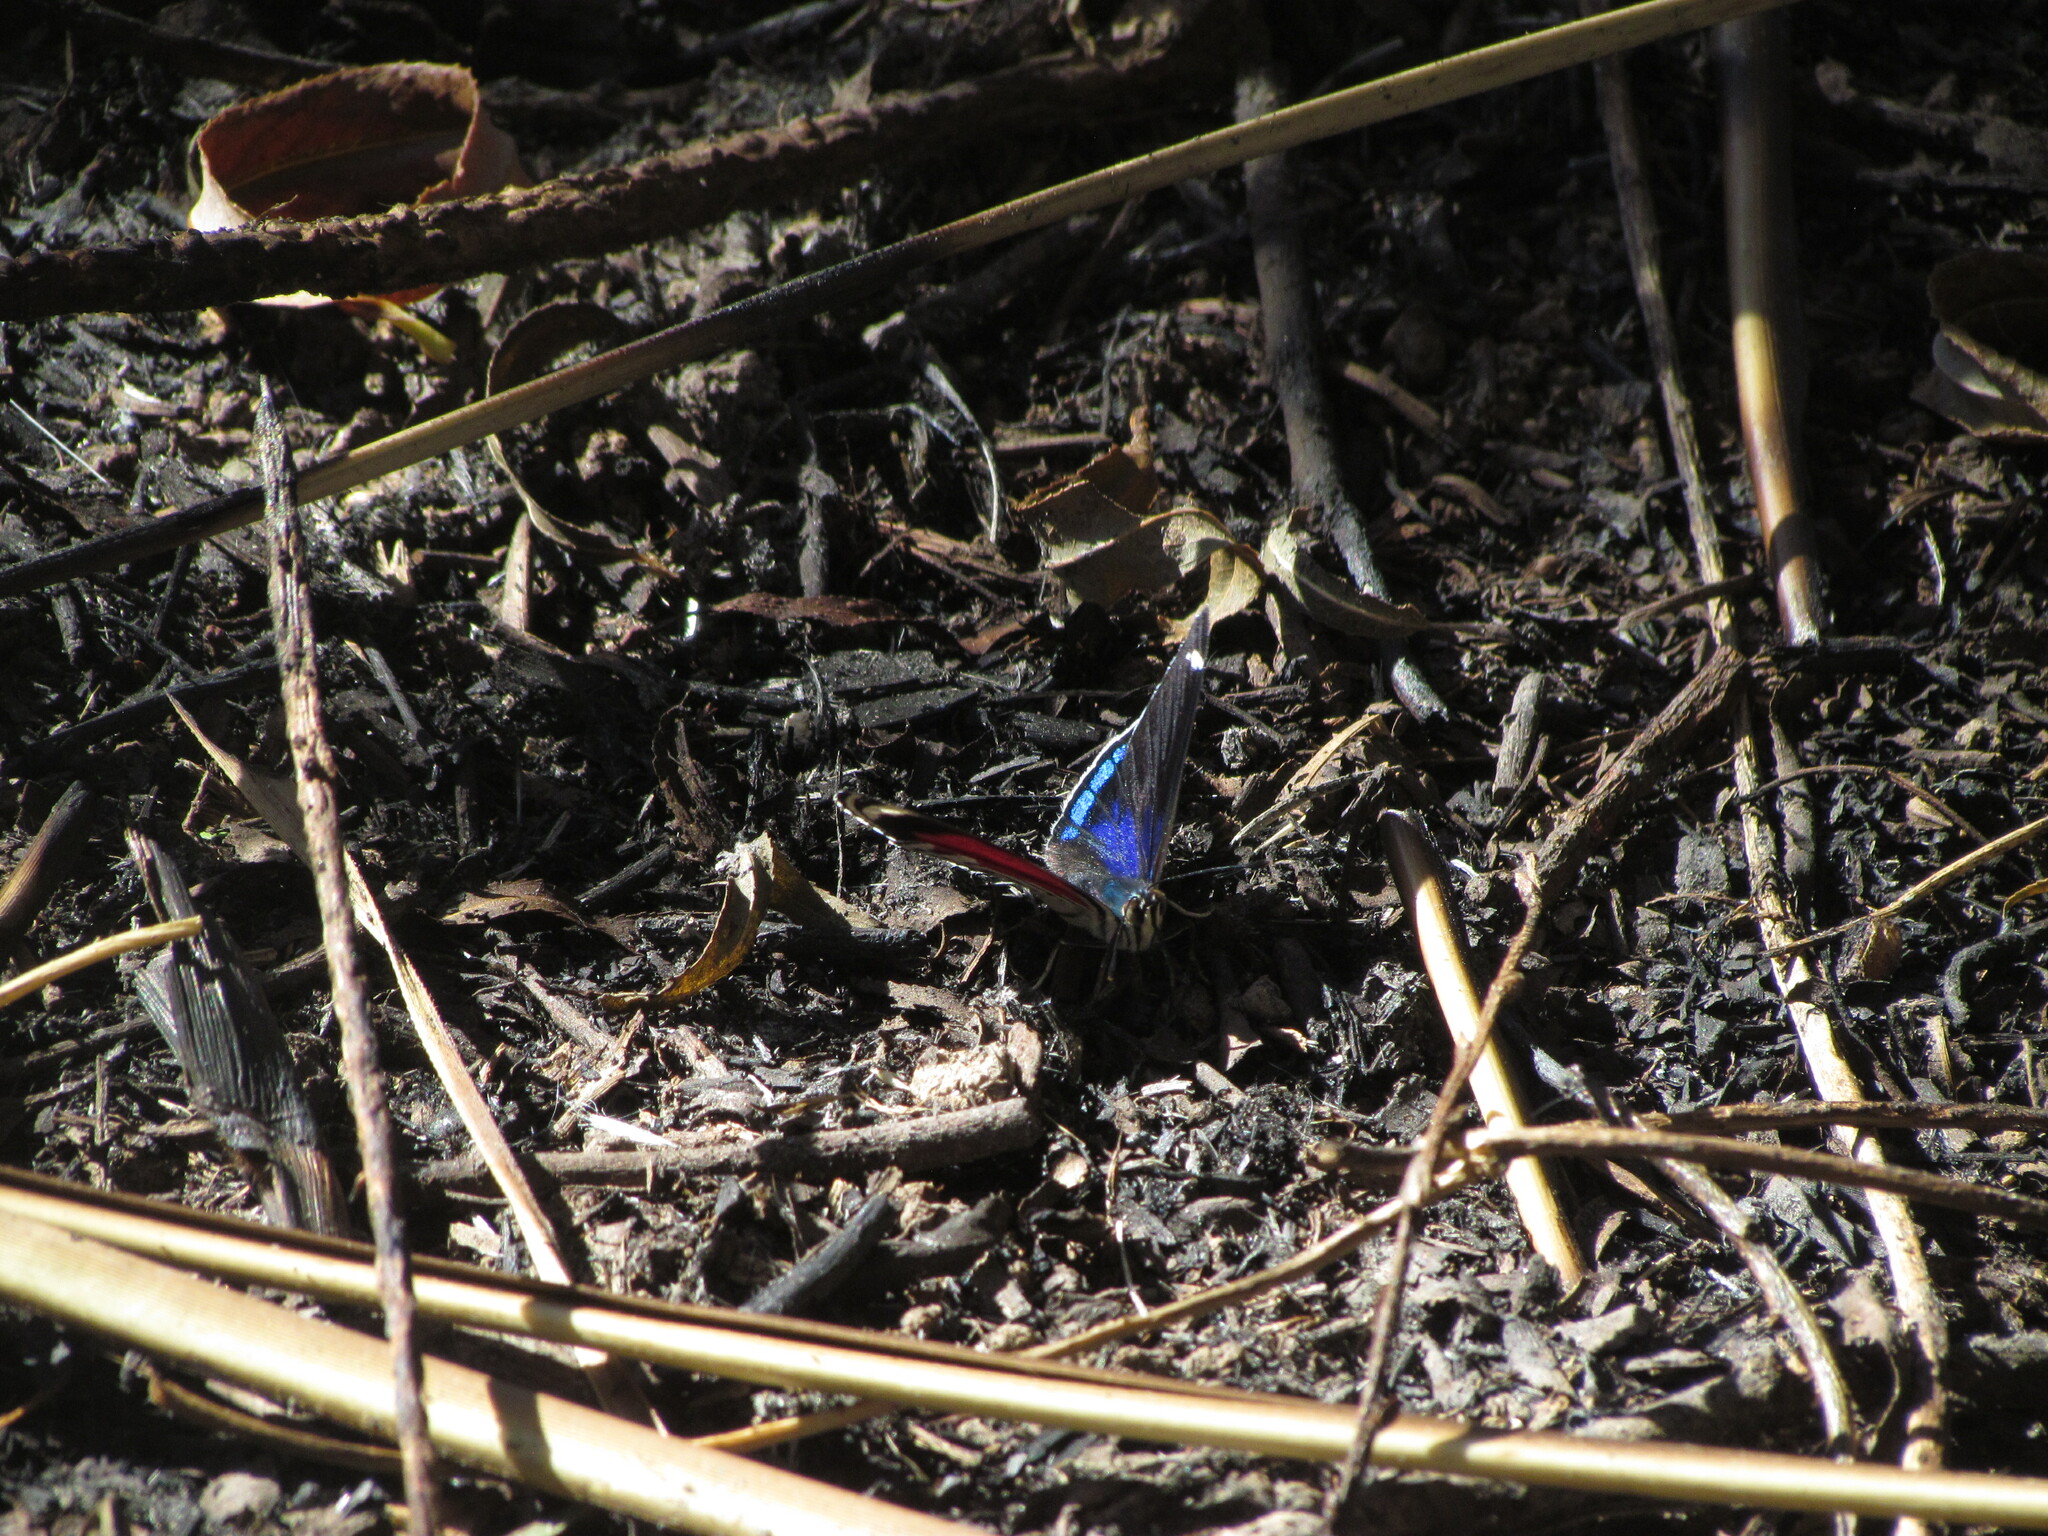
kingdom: Animalia
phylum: Arthropoda
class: Insecta
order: Lepidoptera
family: Nymphalidae
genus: Diaethria
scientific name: Diaethria candrena
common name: Number eighty
